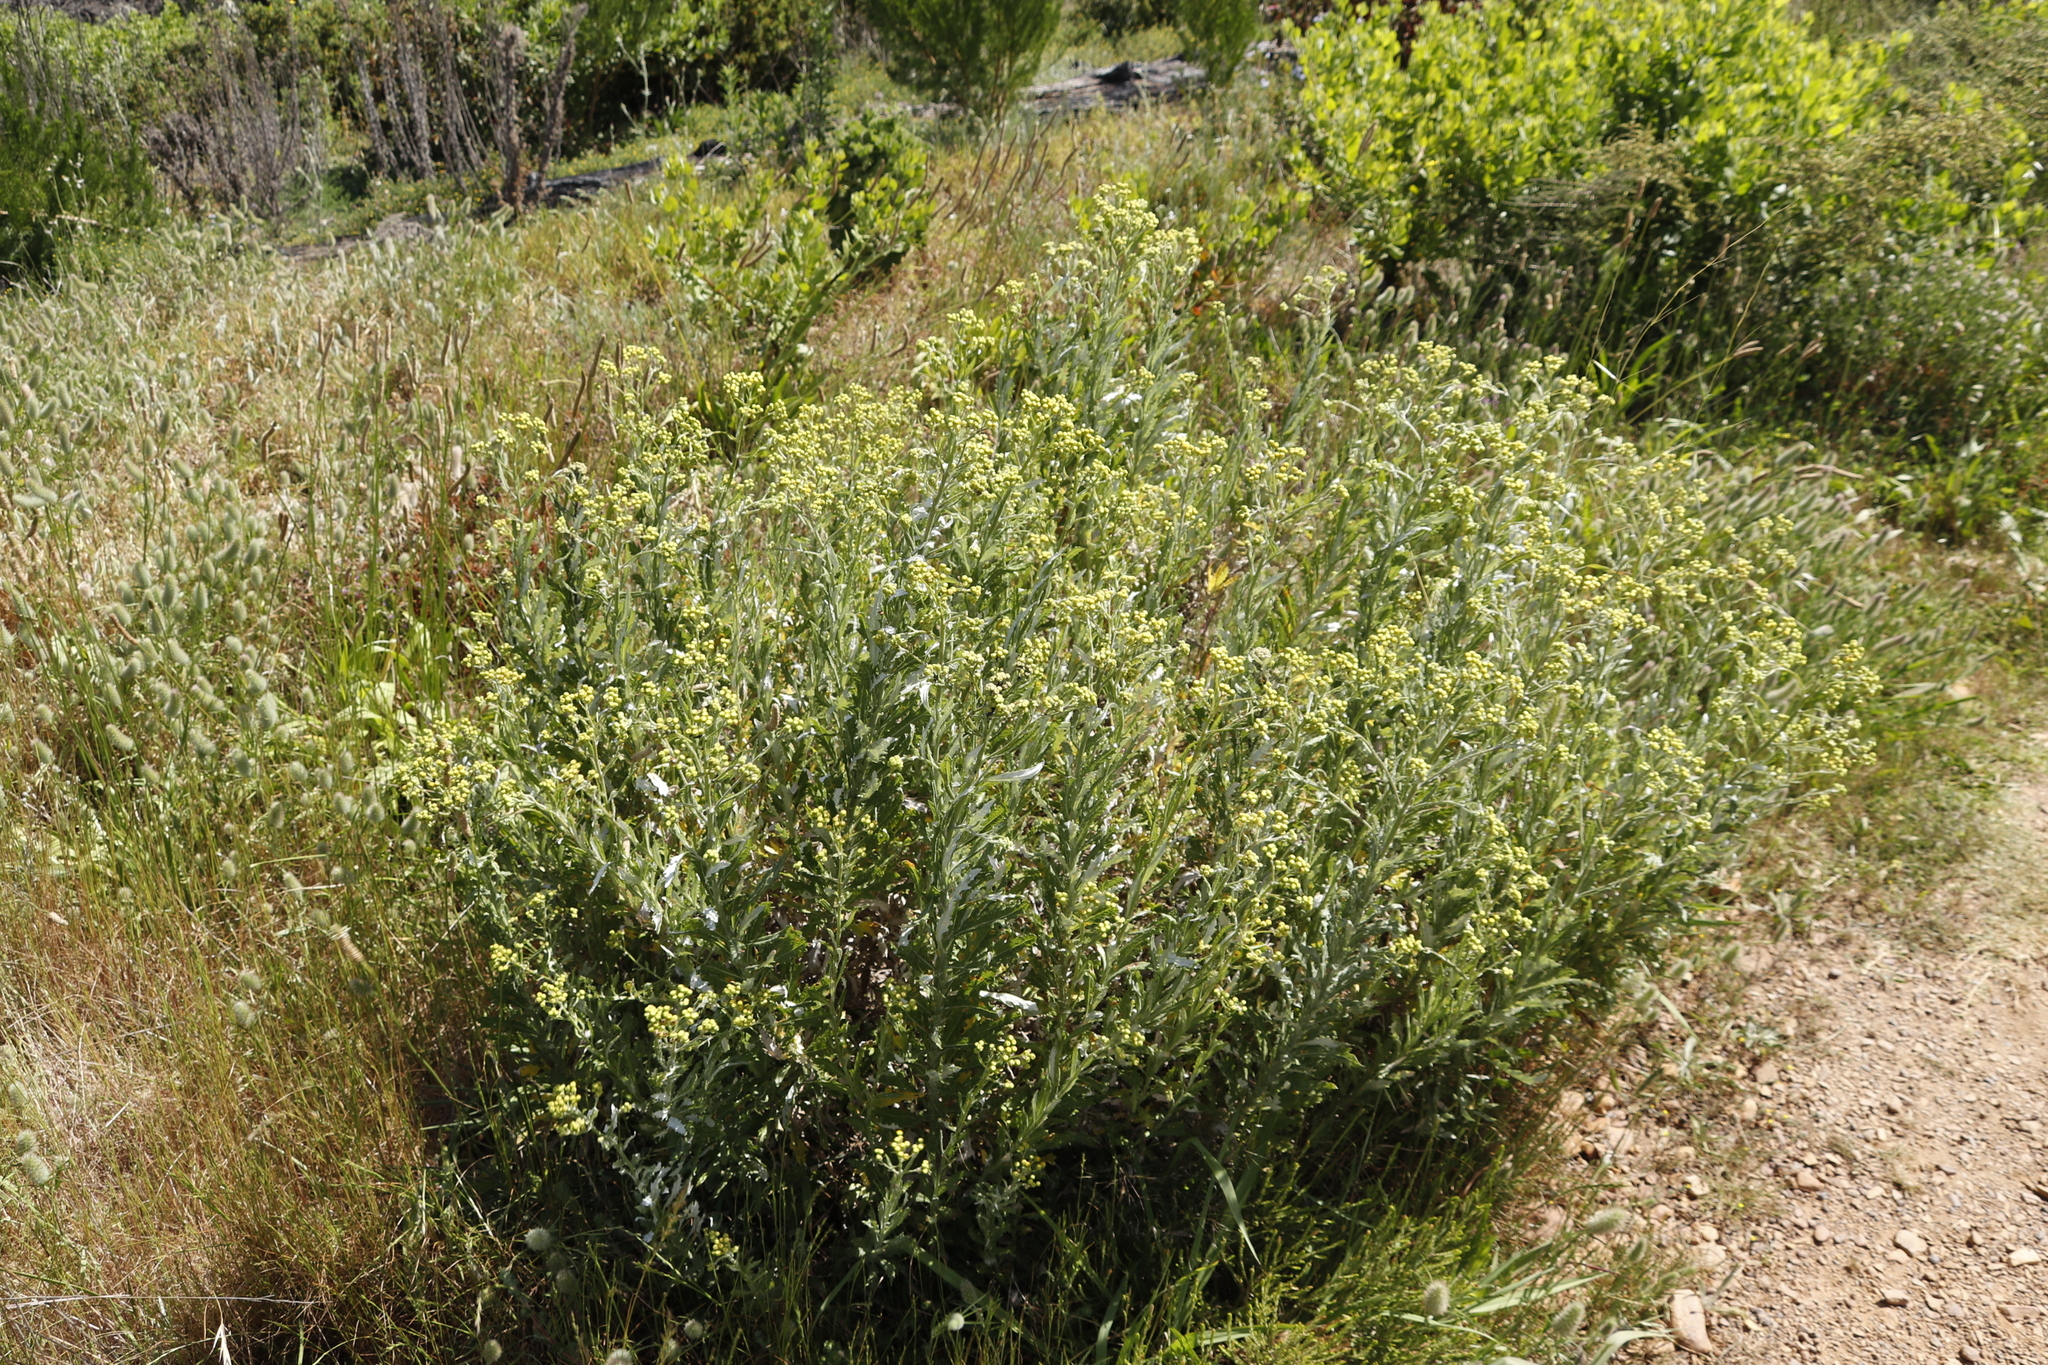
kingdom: Plantae
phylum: Tracheophyta
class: Magnoliopsida
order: Asterales
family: Asteraceae
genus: Senecio
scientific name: Senecio pterophorus
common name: Shoddy ragwort
